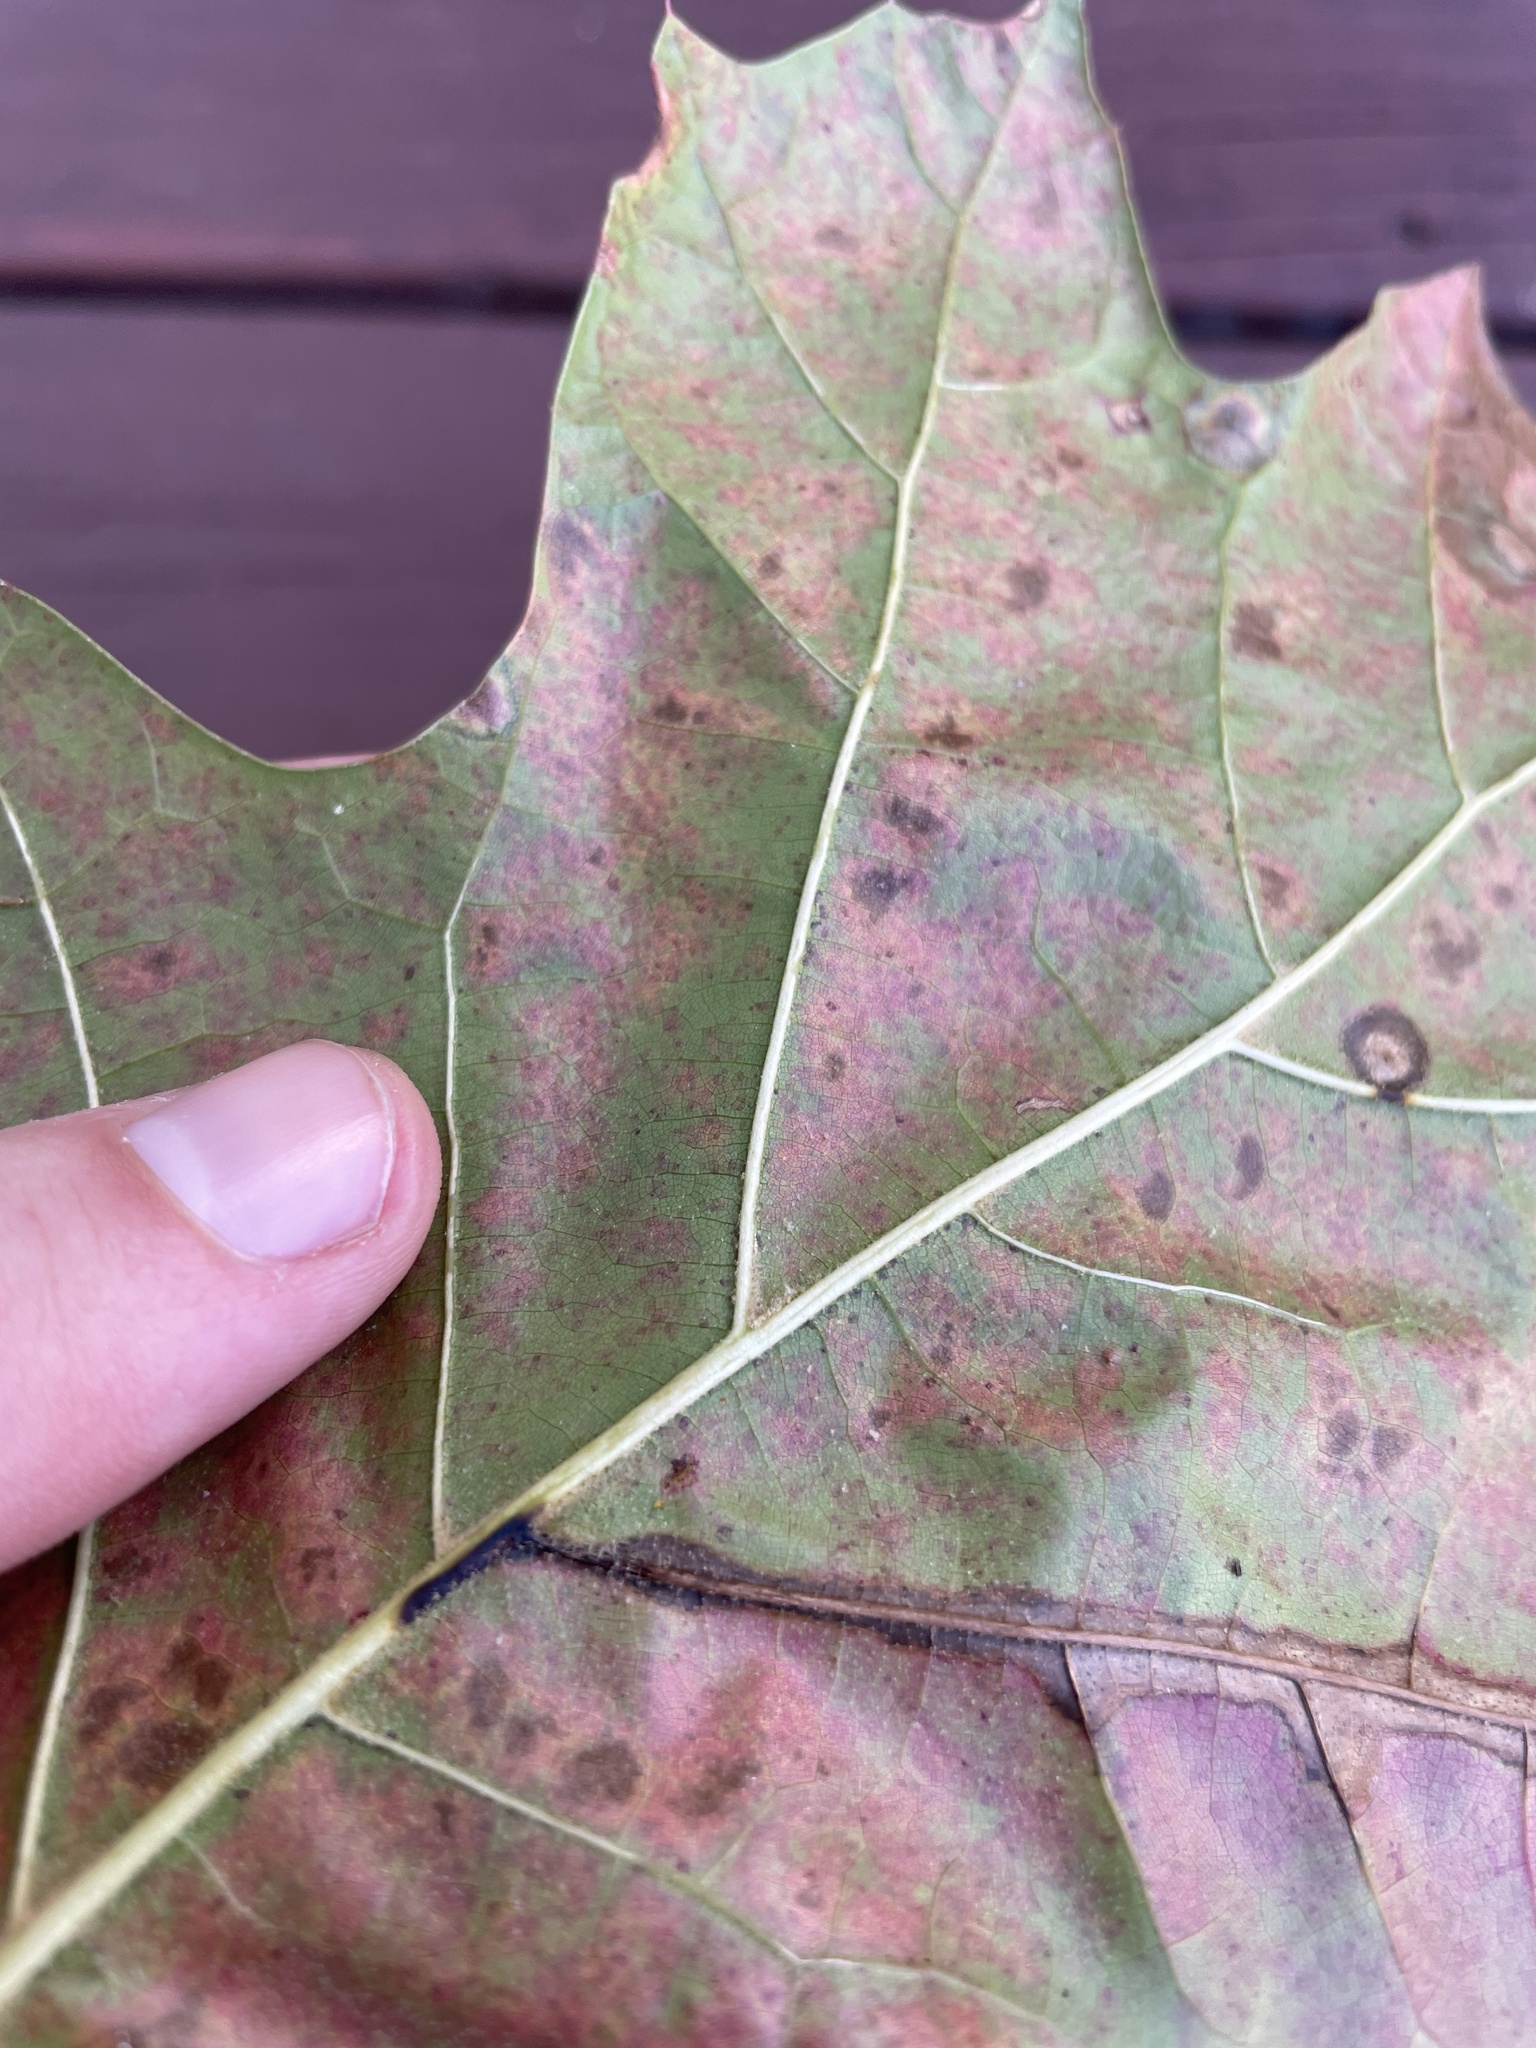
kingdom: Plantae
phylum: Tracheophyta
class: Magnoliopsida
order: Fagales
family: Fagaceae
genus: Quercus
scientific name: Quercus velutina
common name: Black oak
